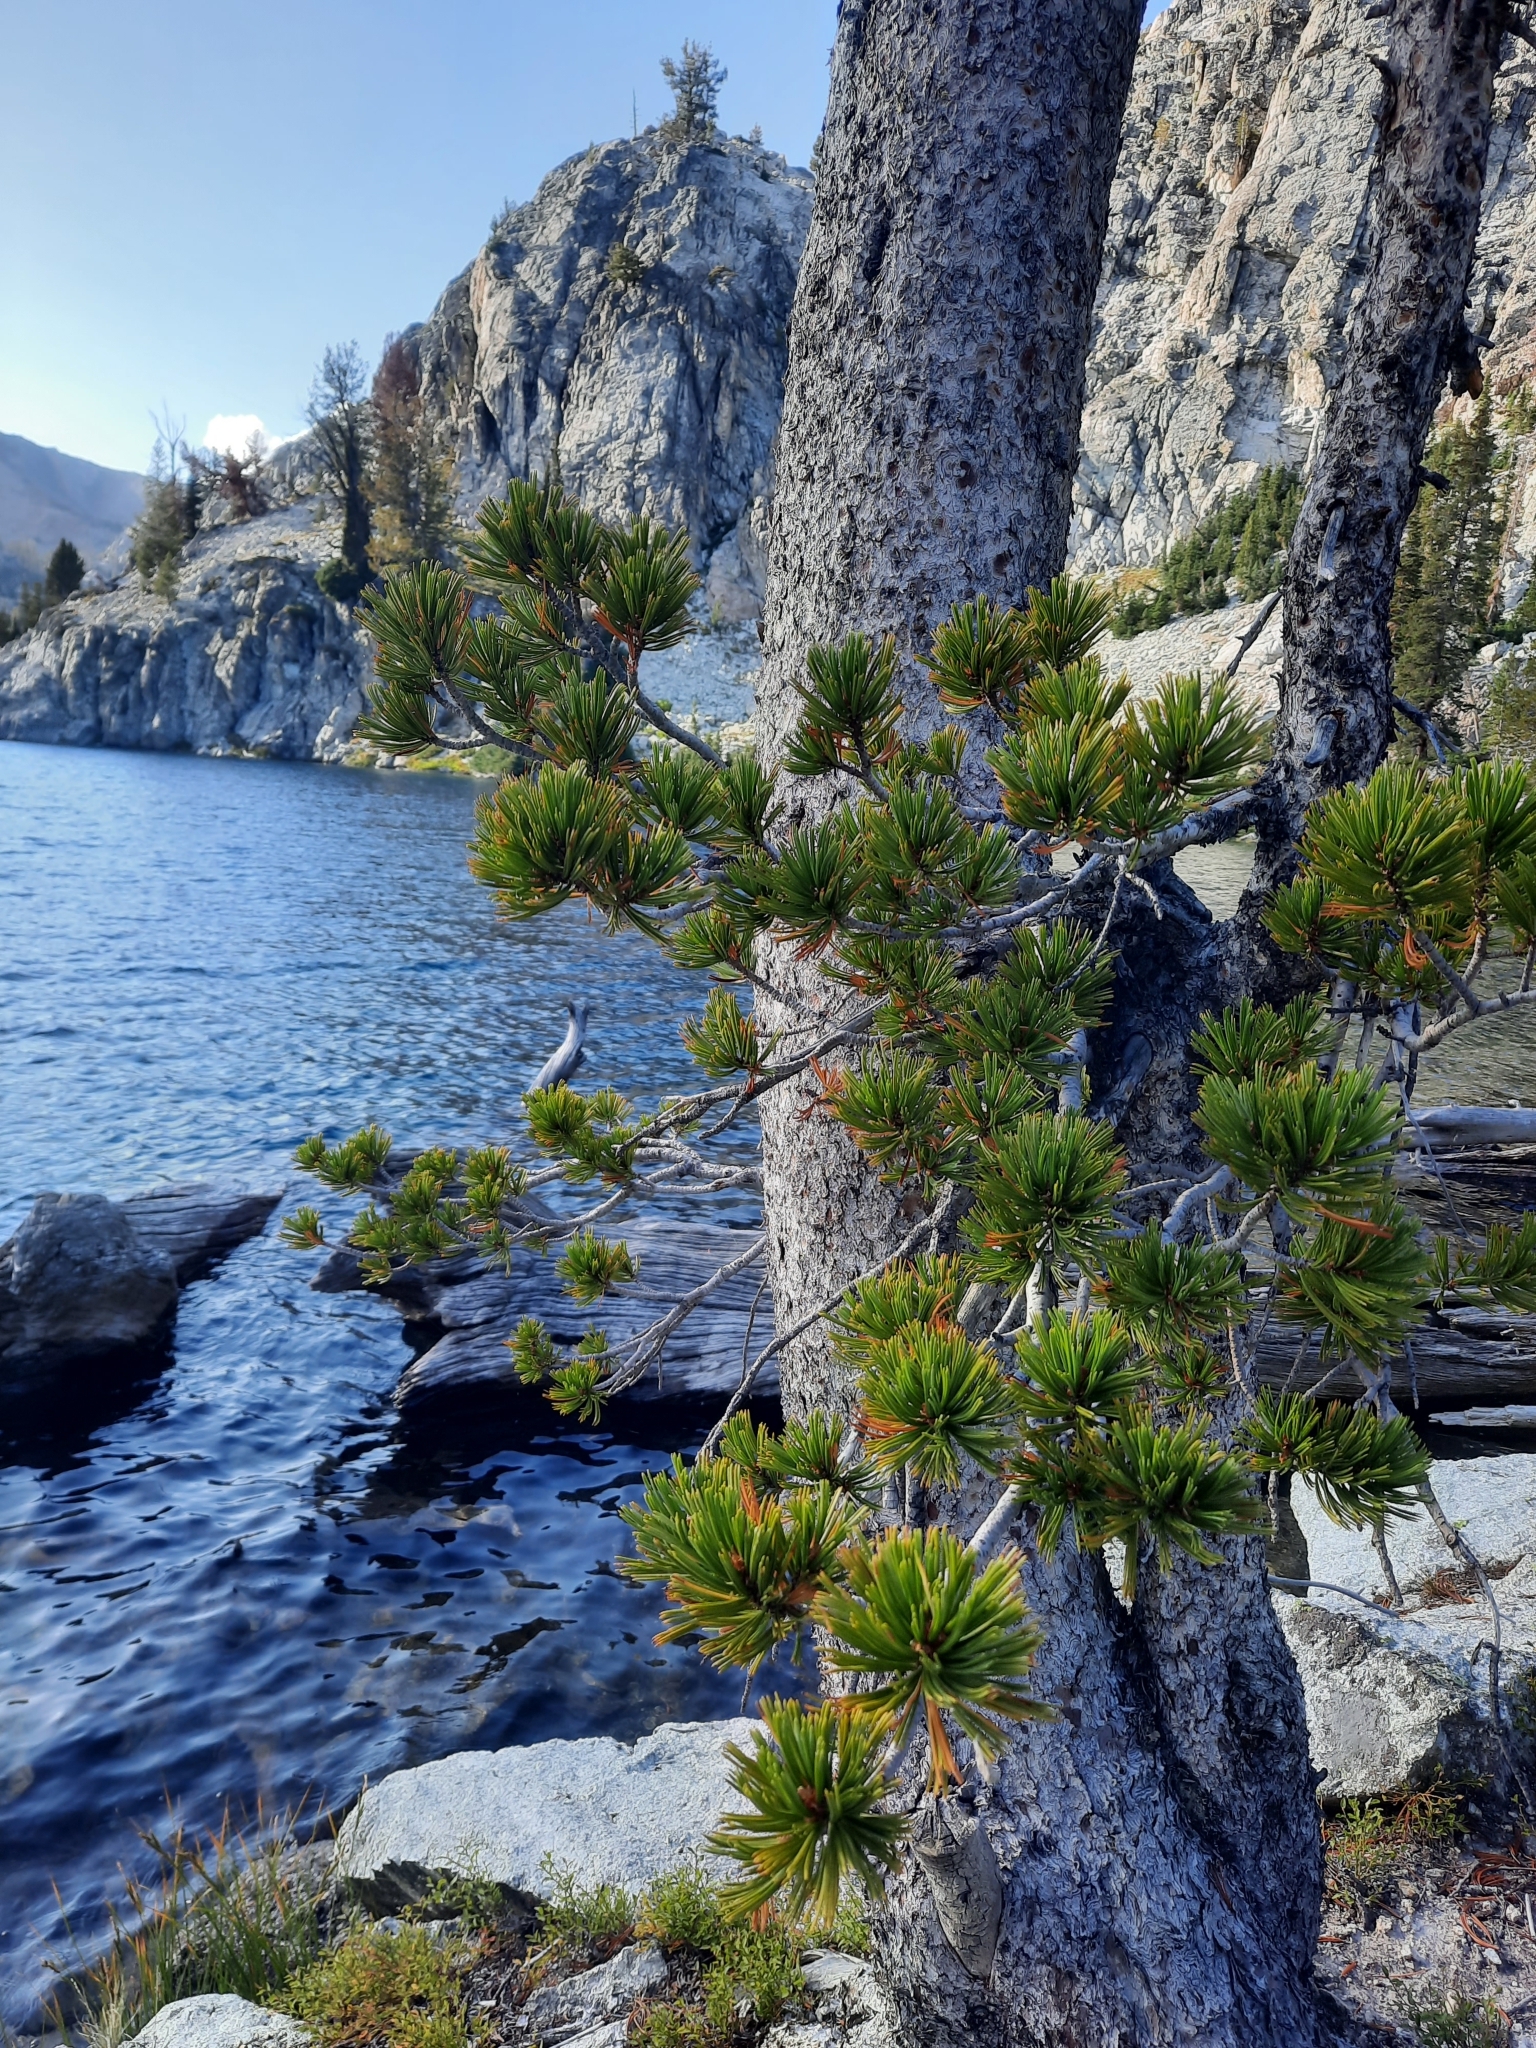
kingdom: Plantae
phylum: Tracheophyta
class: Pinopsida
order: Pinales
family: Pinaceae
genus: Pinus
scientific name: Pinus albicaulis
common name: Whitebark pine
